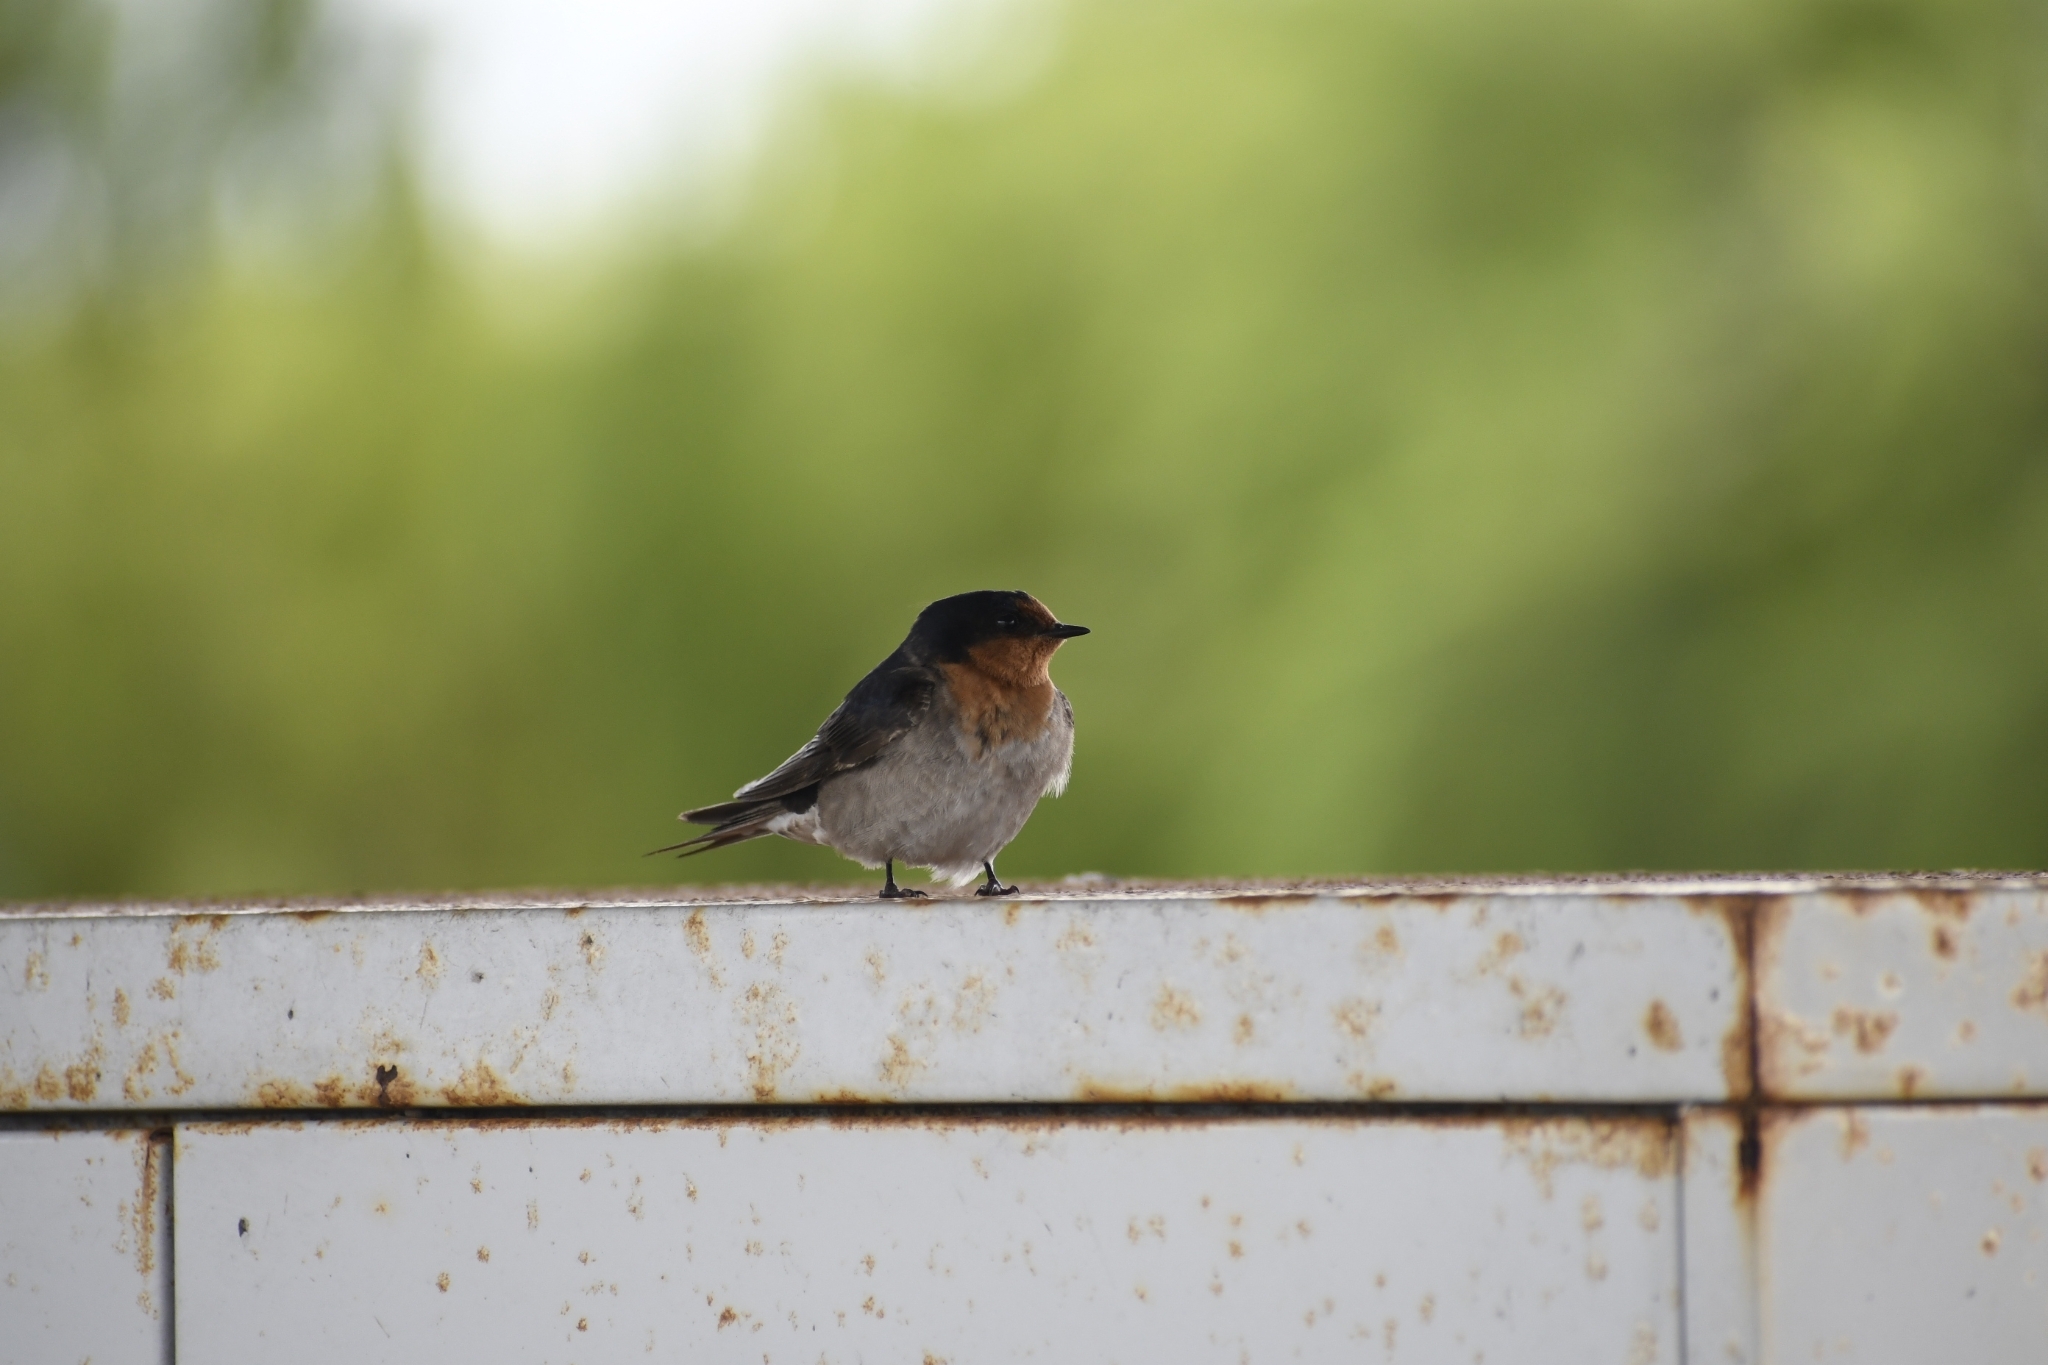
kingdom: Animalia
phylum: Chordata
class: Aves
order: Passeriformes
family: Hirundinidae
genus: Hirundo
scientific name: Hirundo neoxena
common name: Welcome swallow
